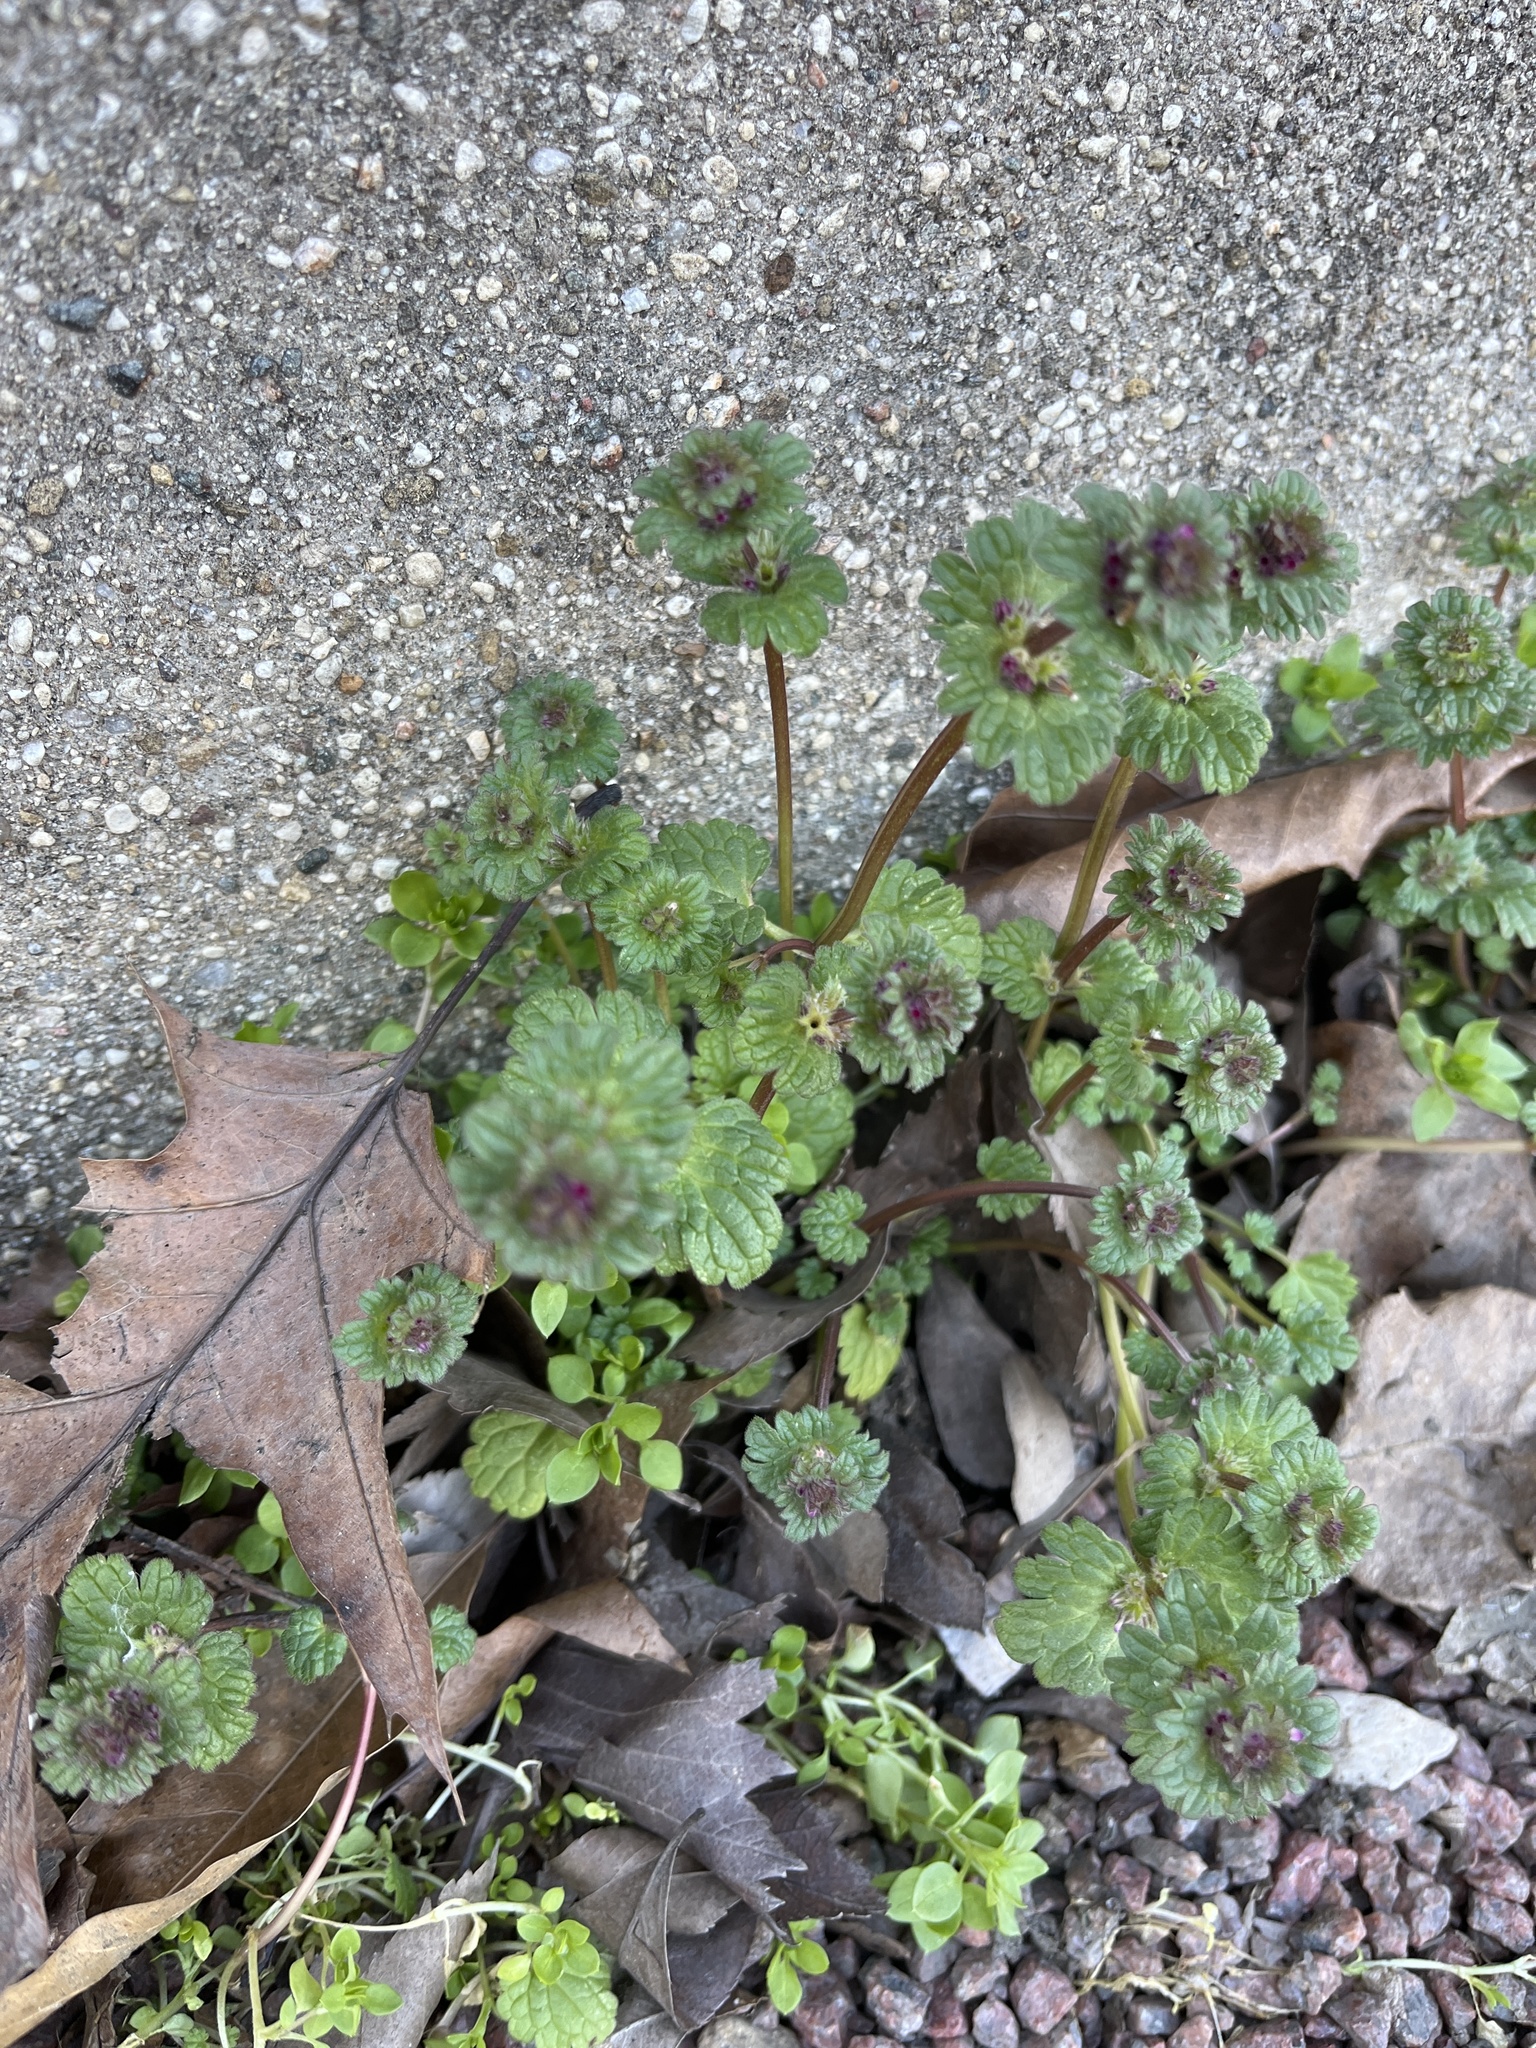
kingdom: Plantae
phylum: Tracheophyta
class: Magnoliopsida
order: Lamiales
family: Lamiaceae
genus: Lamium
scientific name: Lamium amplexicaule
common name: Henbit dead-nettle
